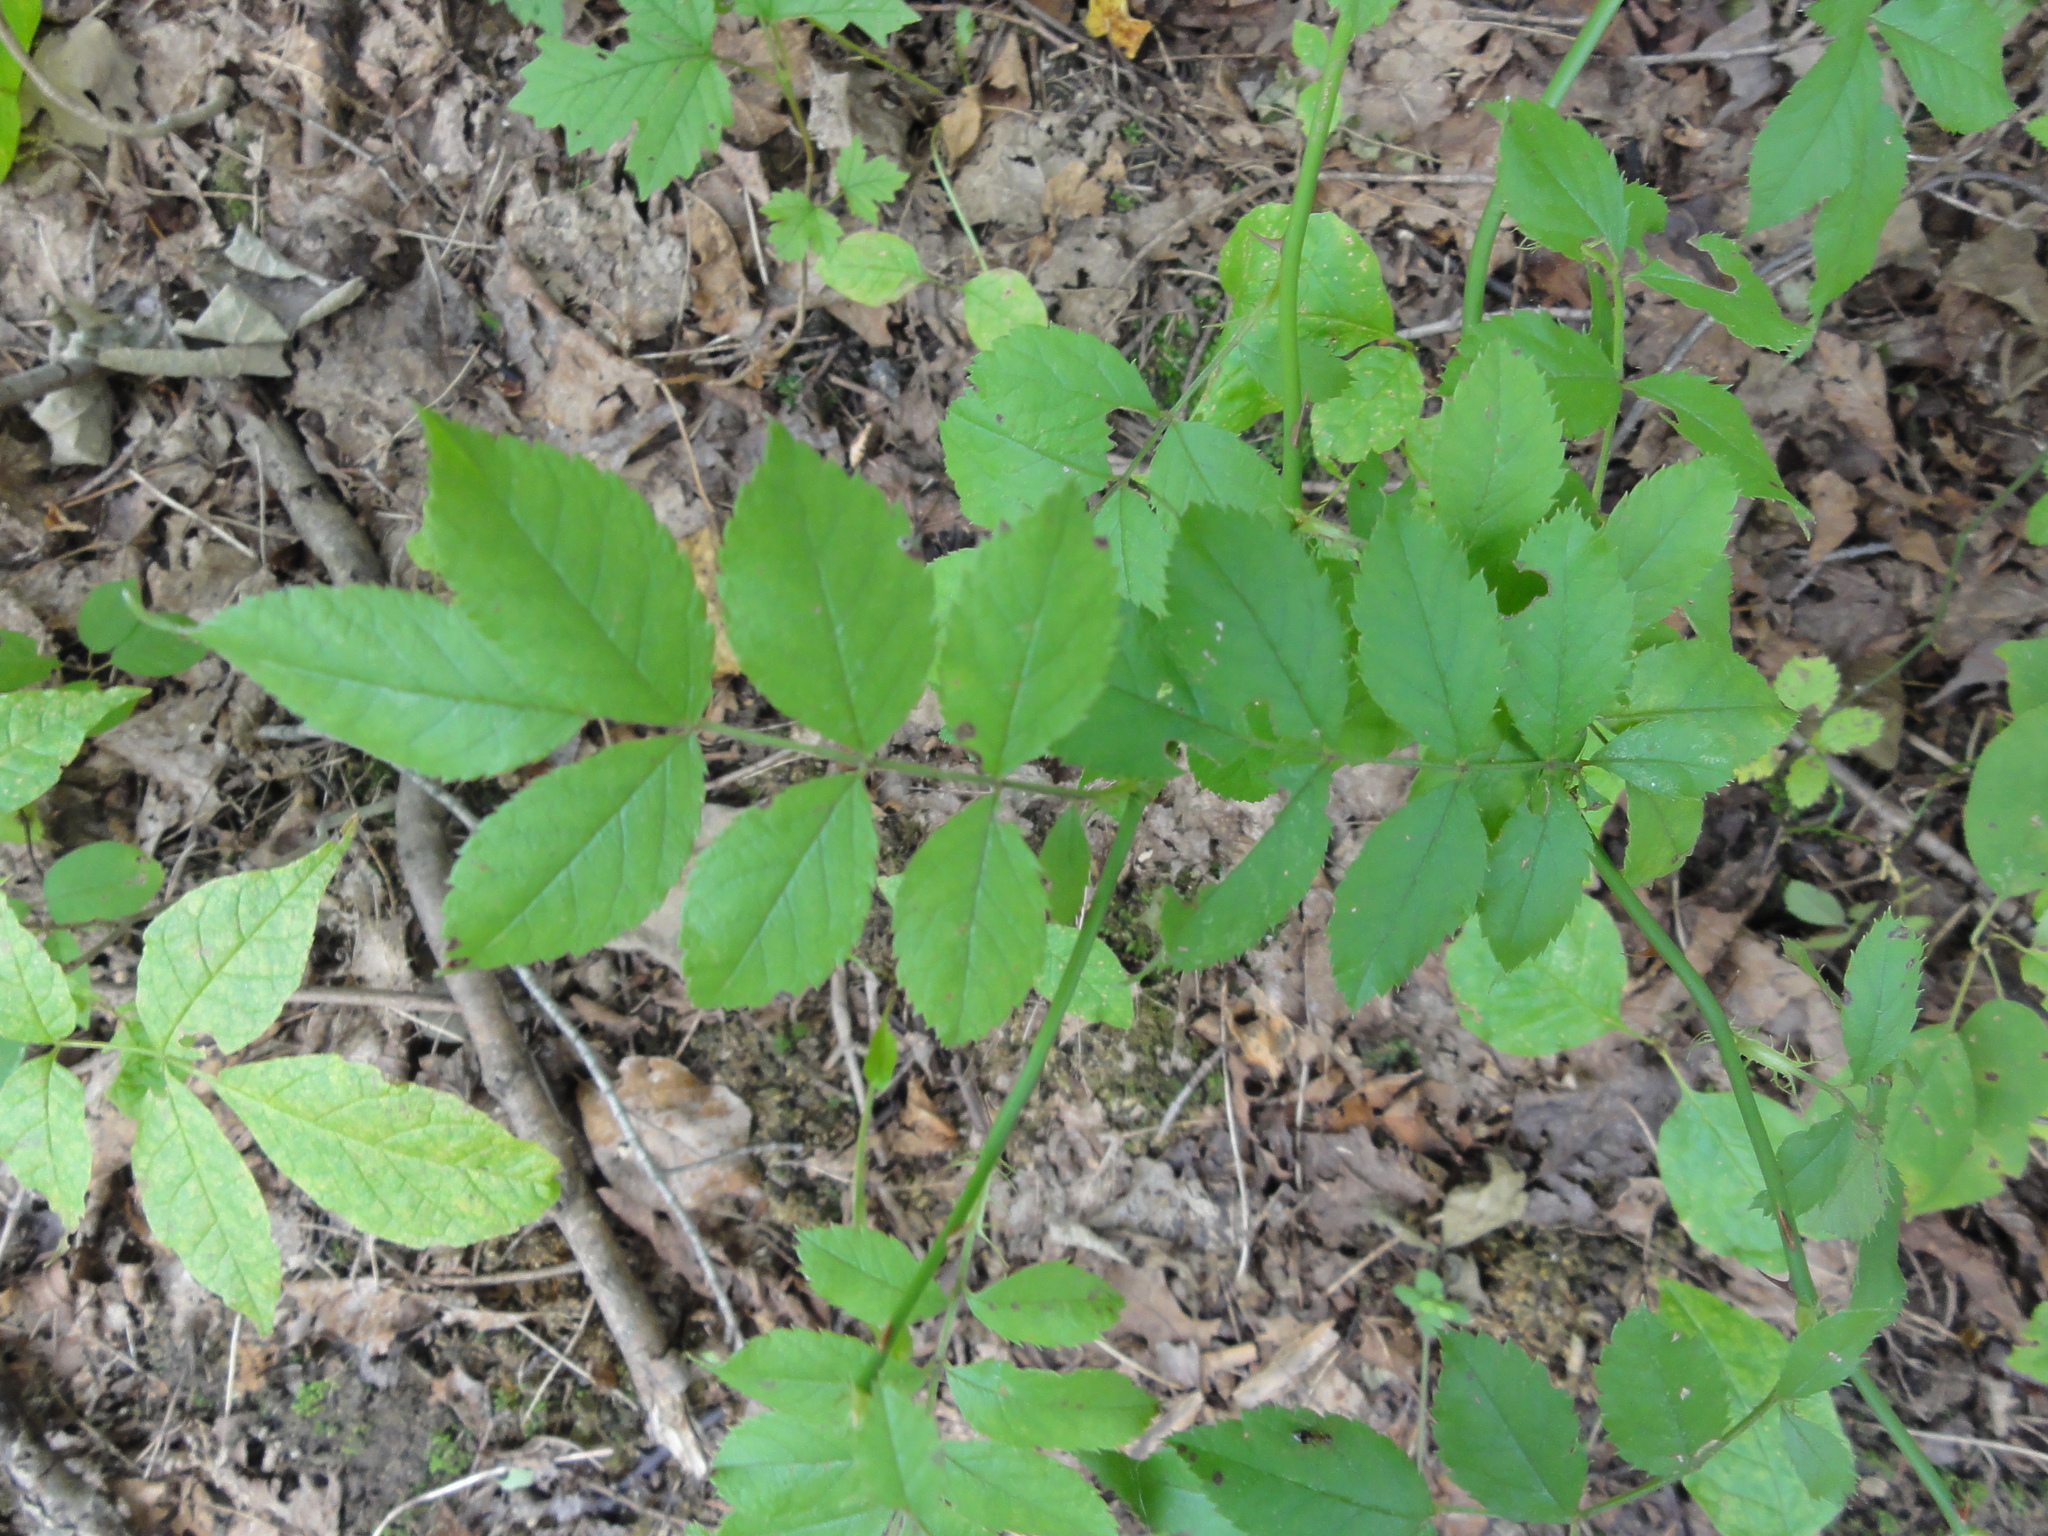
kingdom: Plantae
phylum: Tracheophyta
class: Magnoliopsida
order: Rosales
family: Rosaceae
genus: Rosa
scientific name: Rosa multiflora
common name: Multiflora rose
